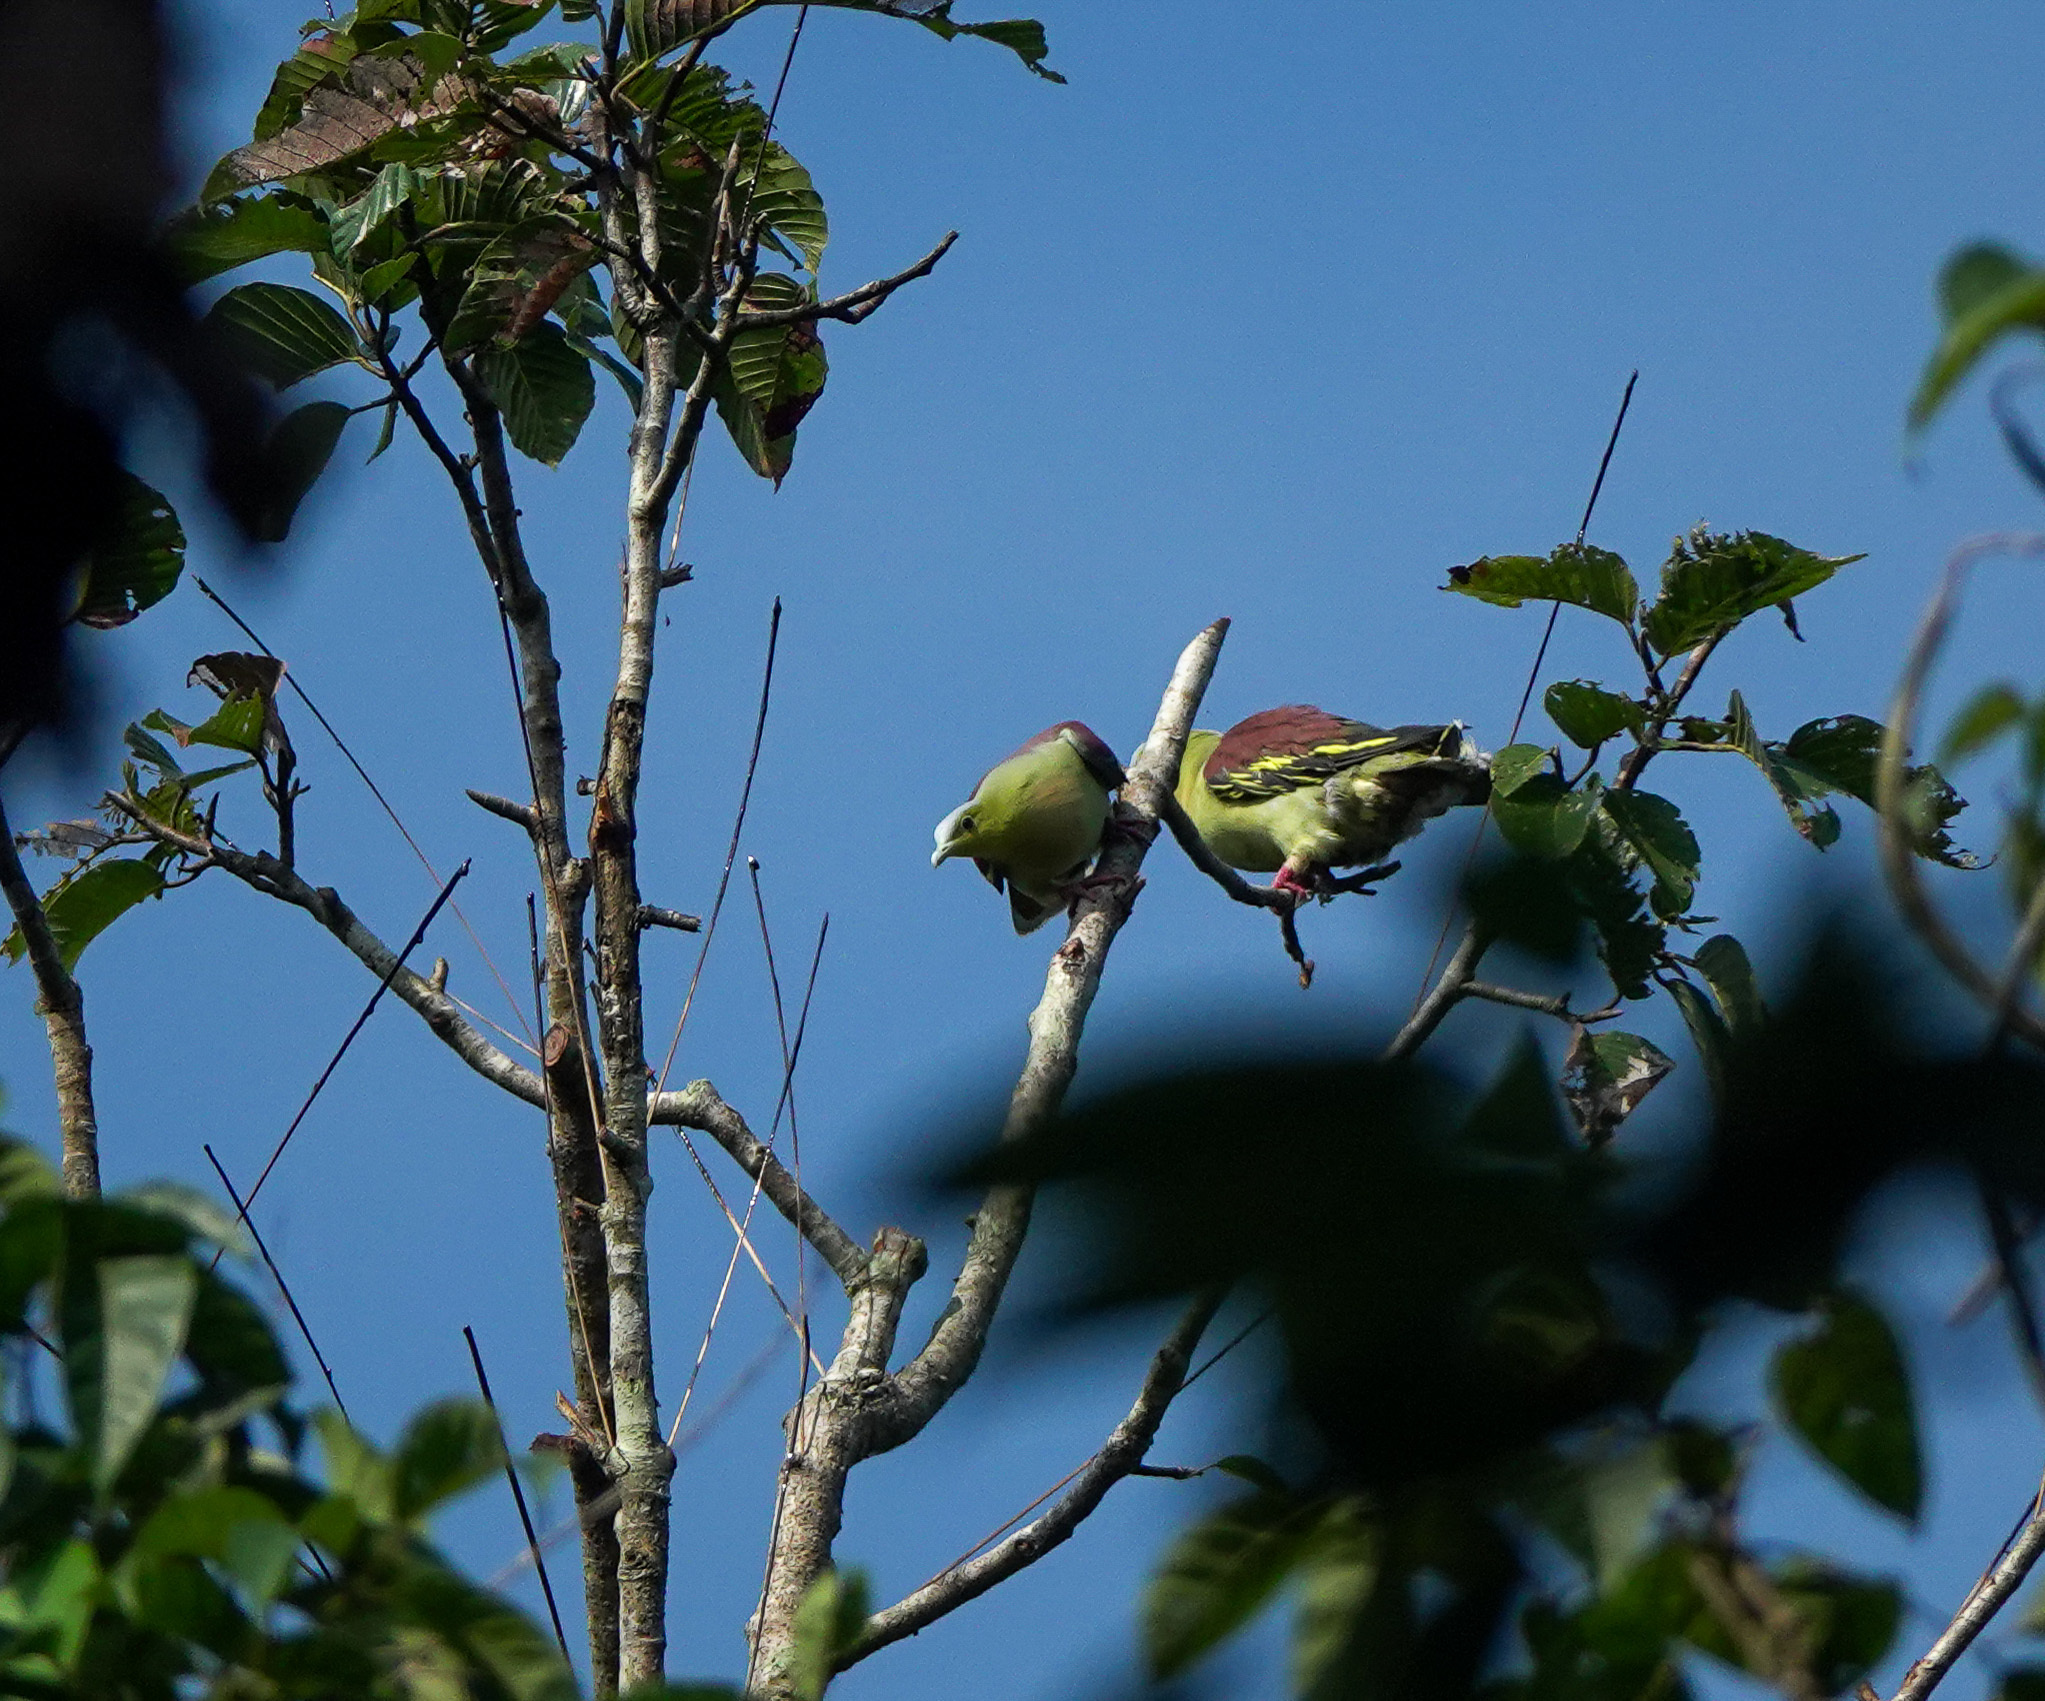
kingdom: Animalia
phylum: Chordata
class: Aves
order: Columbiformes
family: Columbidae
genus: Treron
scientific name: Treron phayrei
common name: Ashy-headed green pigeon
